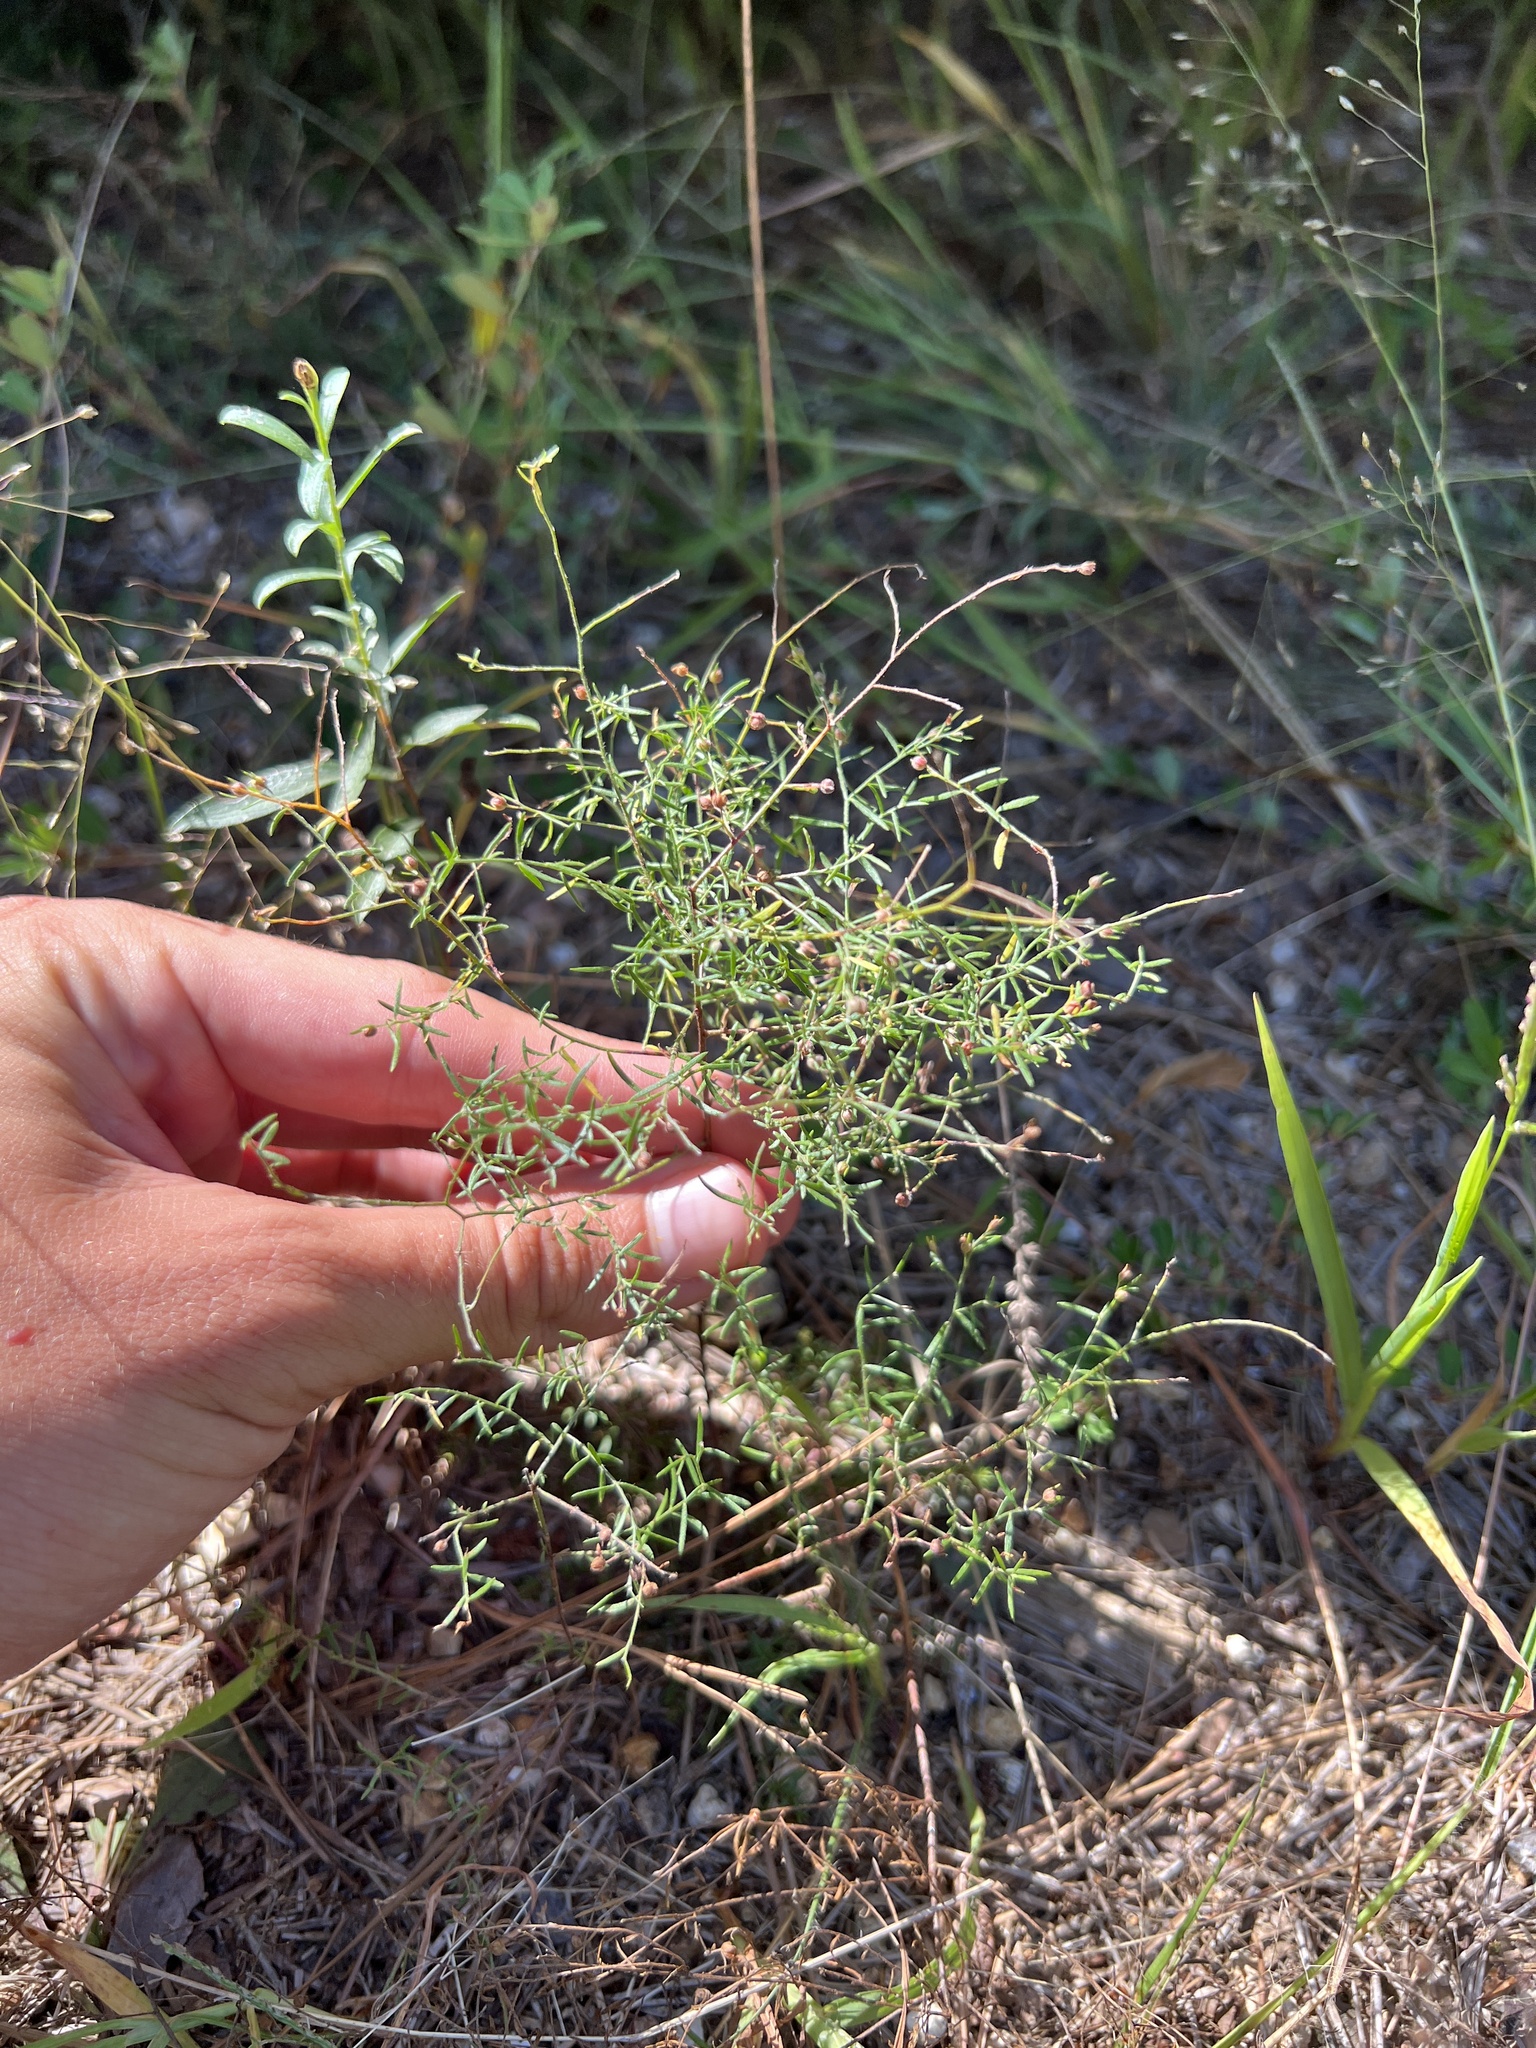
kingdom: Plantae
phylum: Tracheophyta
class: Magnoliopsida
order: Malvales
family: Cistaceae
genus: Lechea
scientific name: Lechea tenuifolia
